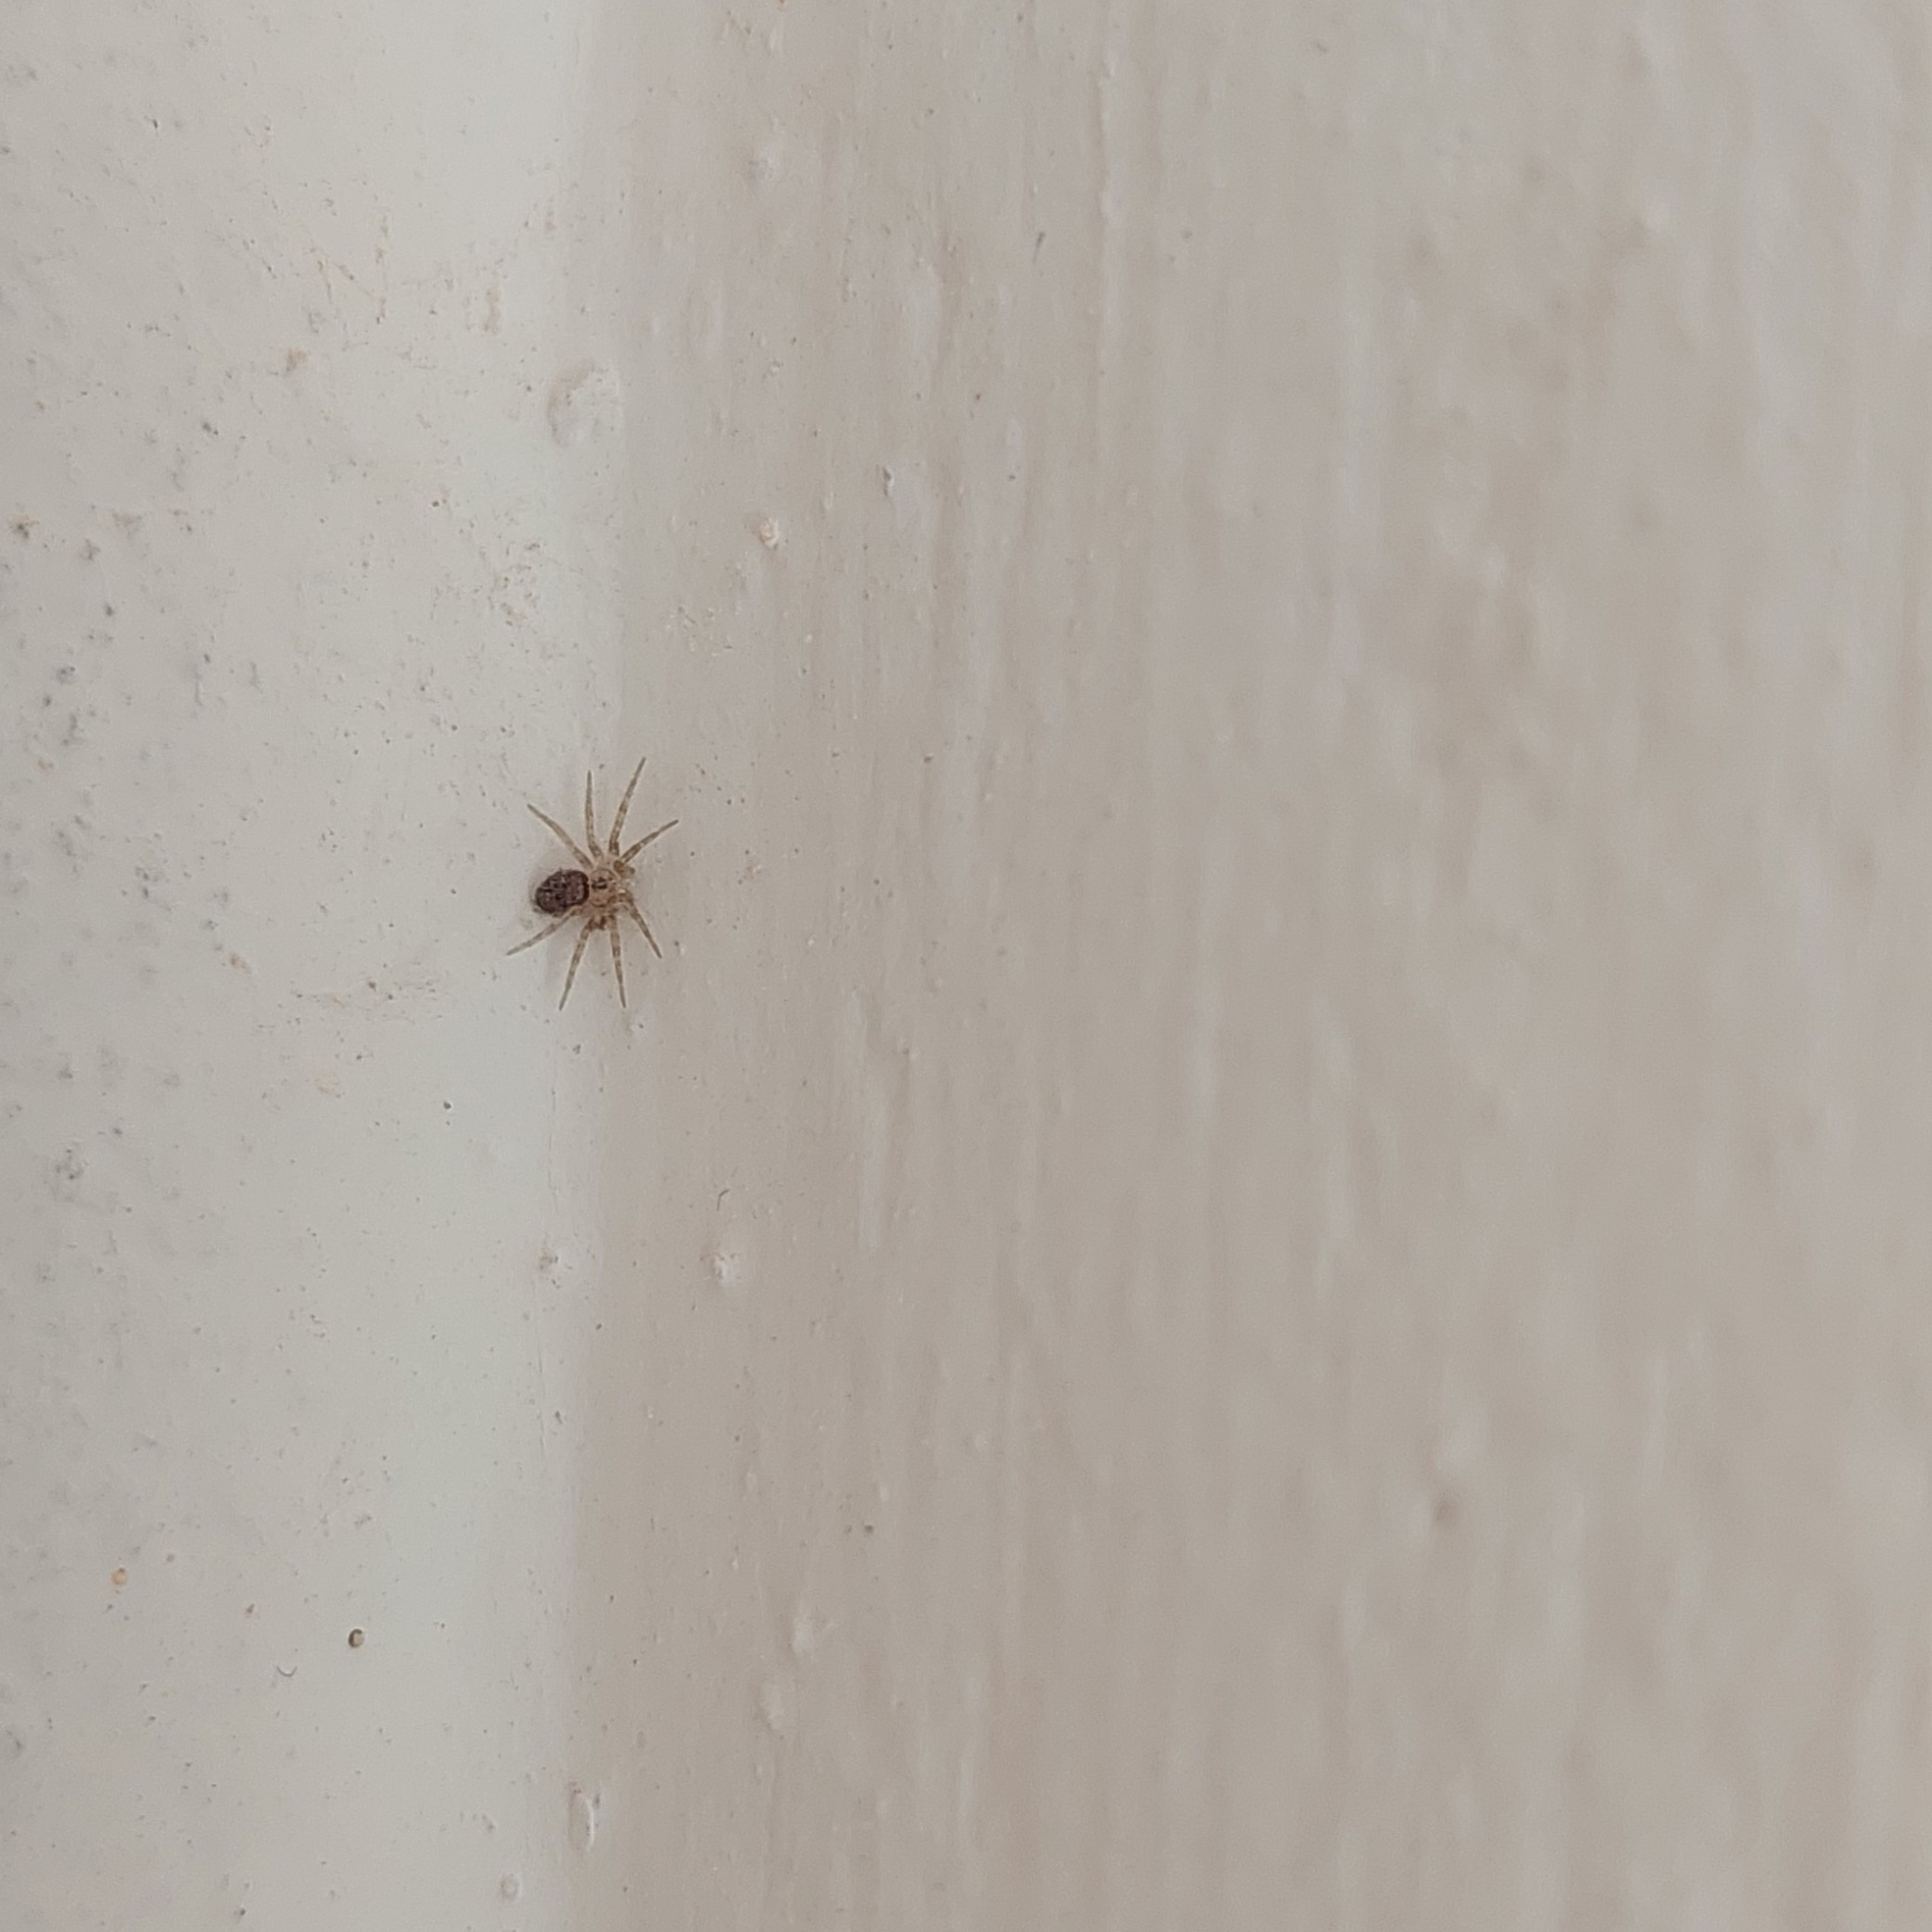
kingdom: Animalia
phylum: Arthropoda
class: Arachnida
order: Araneae
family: Oecobiidae
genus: Oecobius
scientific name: Oecobius navus
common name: Flatmesh weaver
